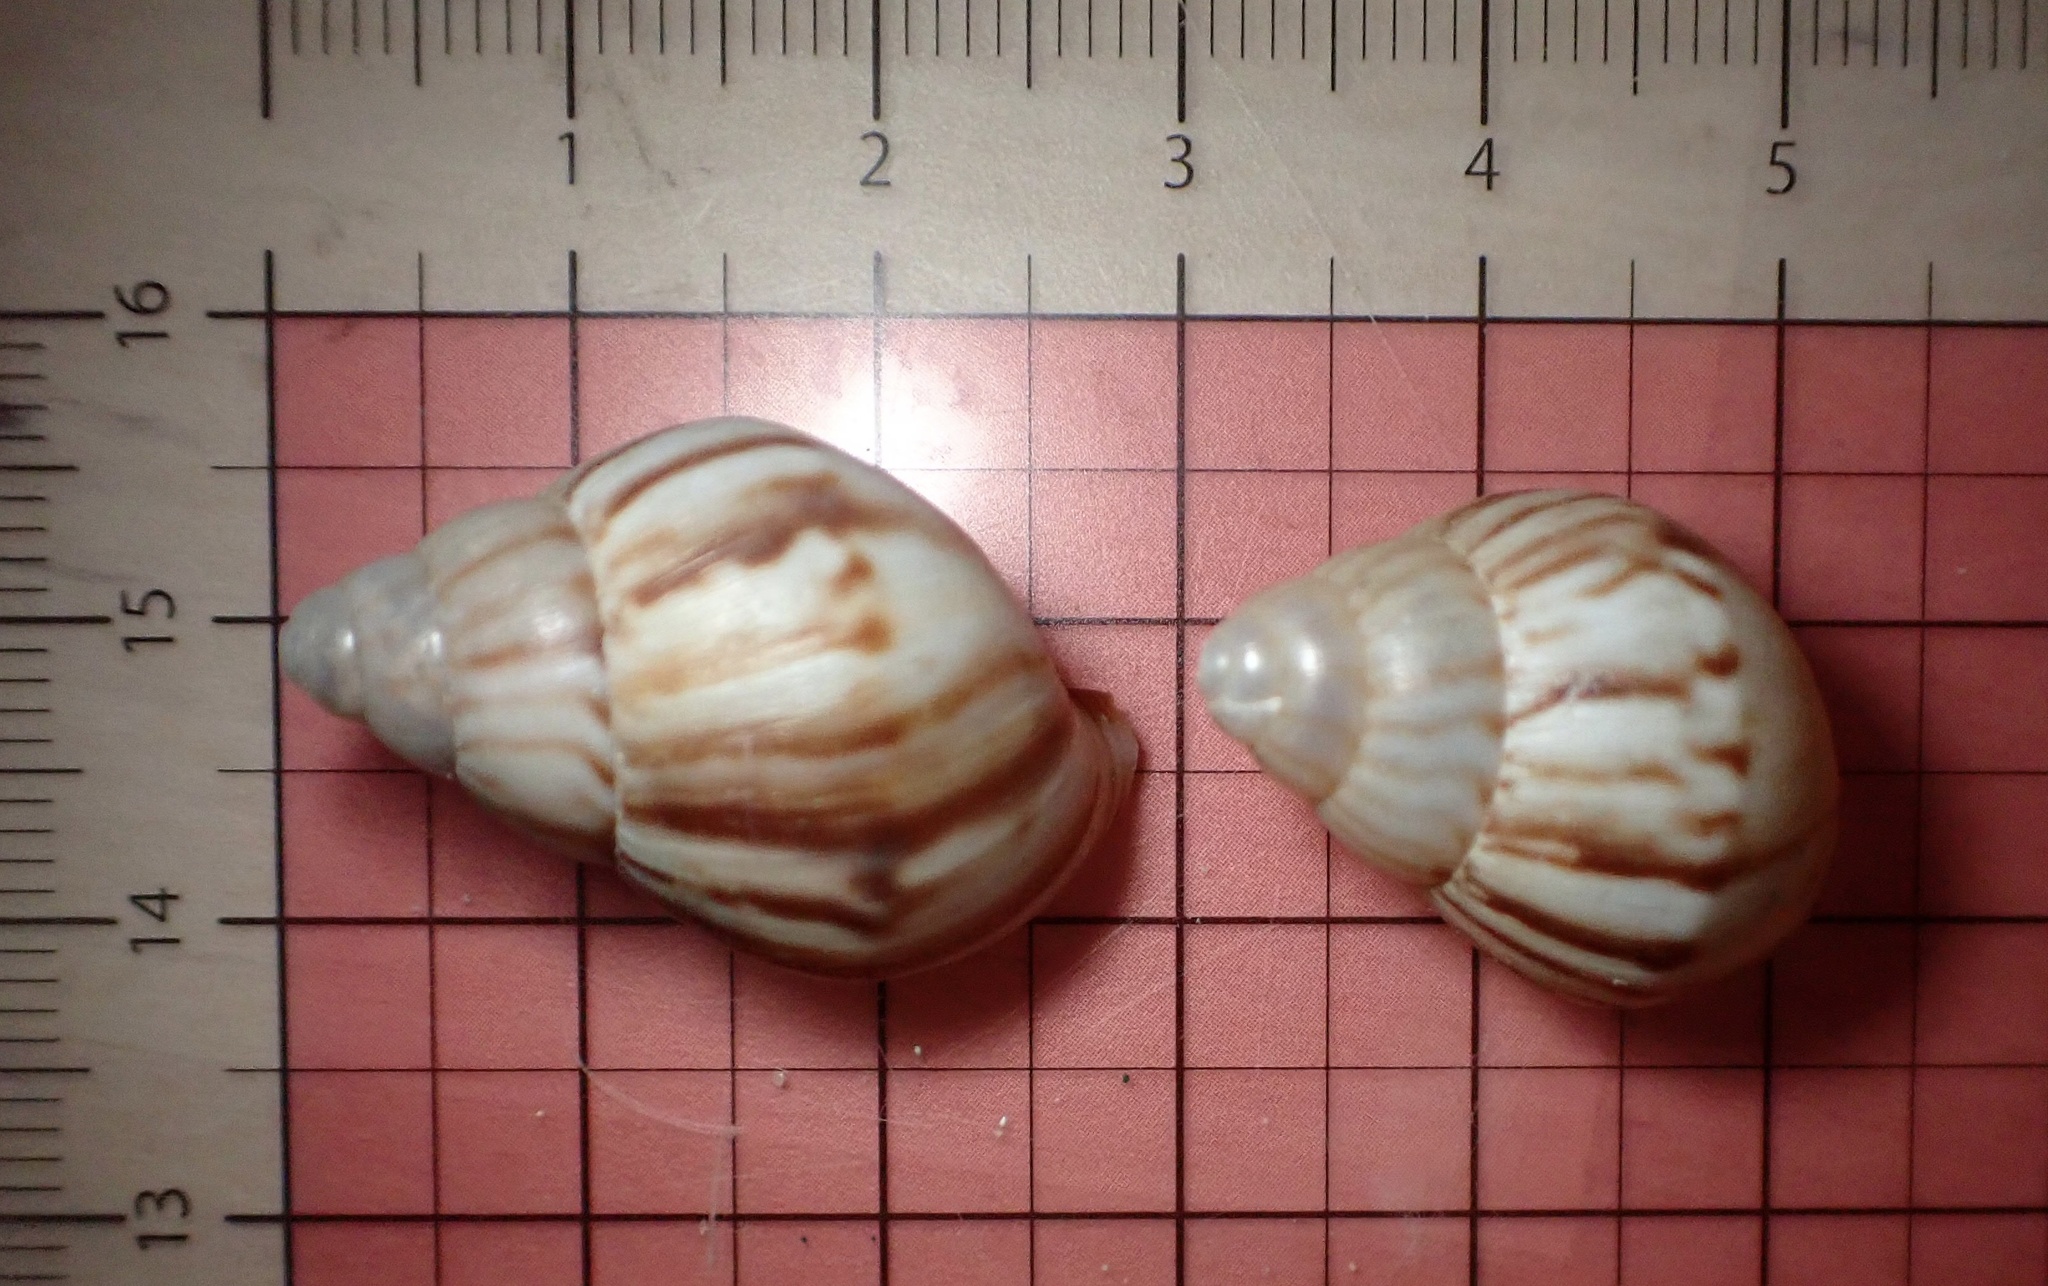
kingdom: Animalia
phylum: Mollusca
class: Gastropoda
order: Stylommatophora
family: Achatinidae
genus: Lissachatina
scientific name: Lissachatina fulica
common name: Giant african snail
